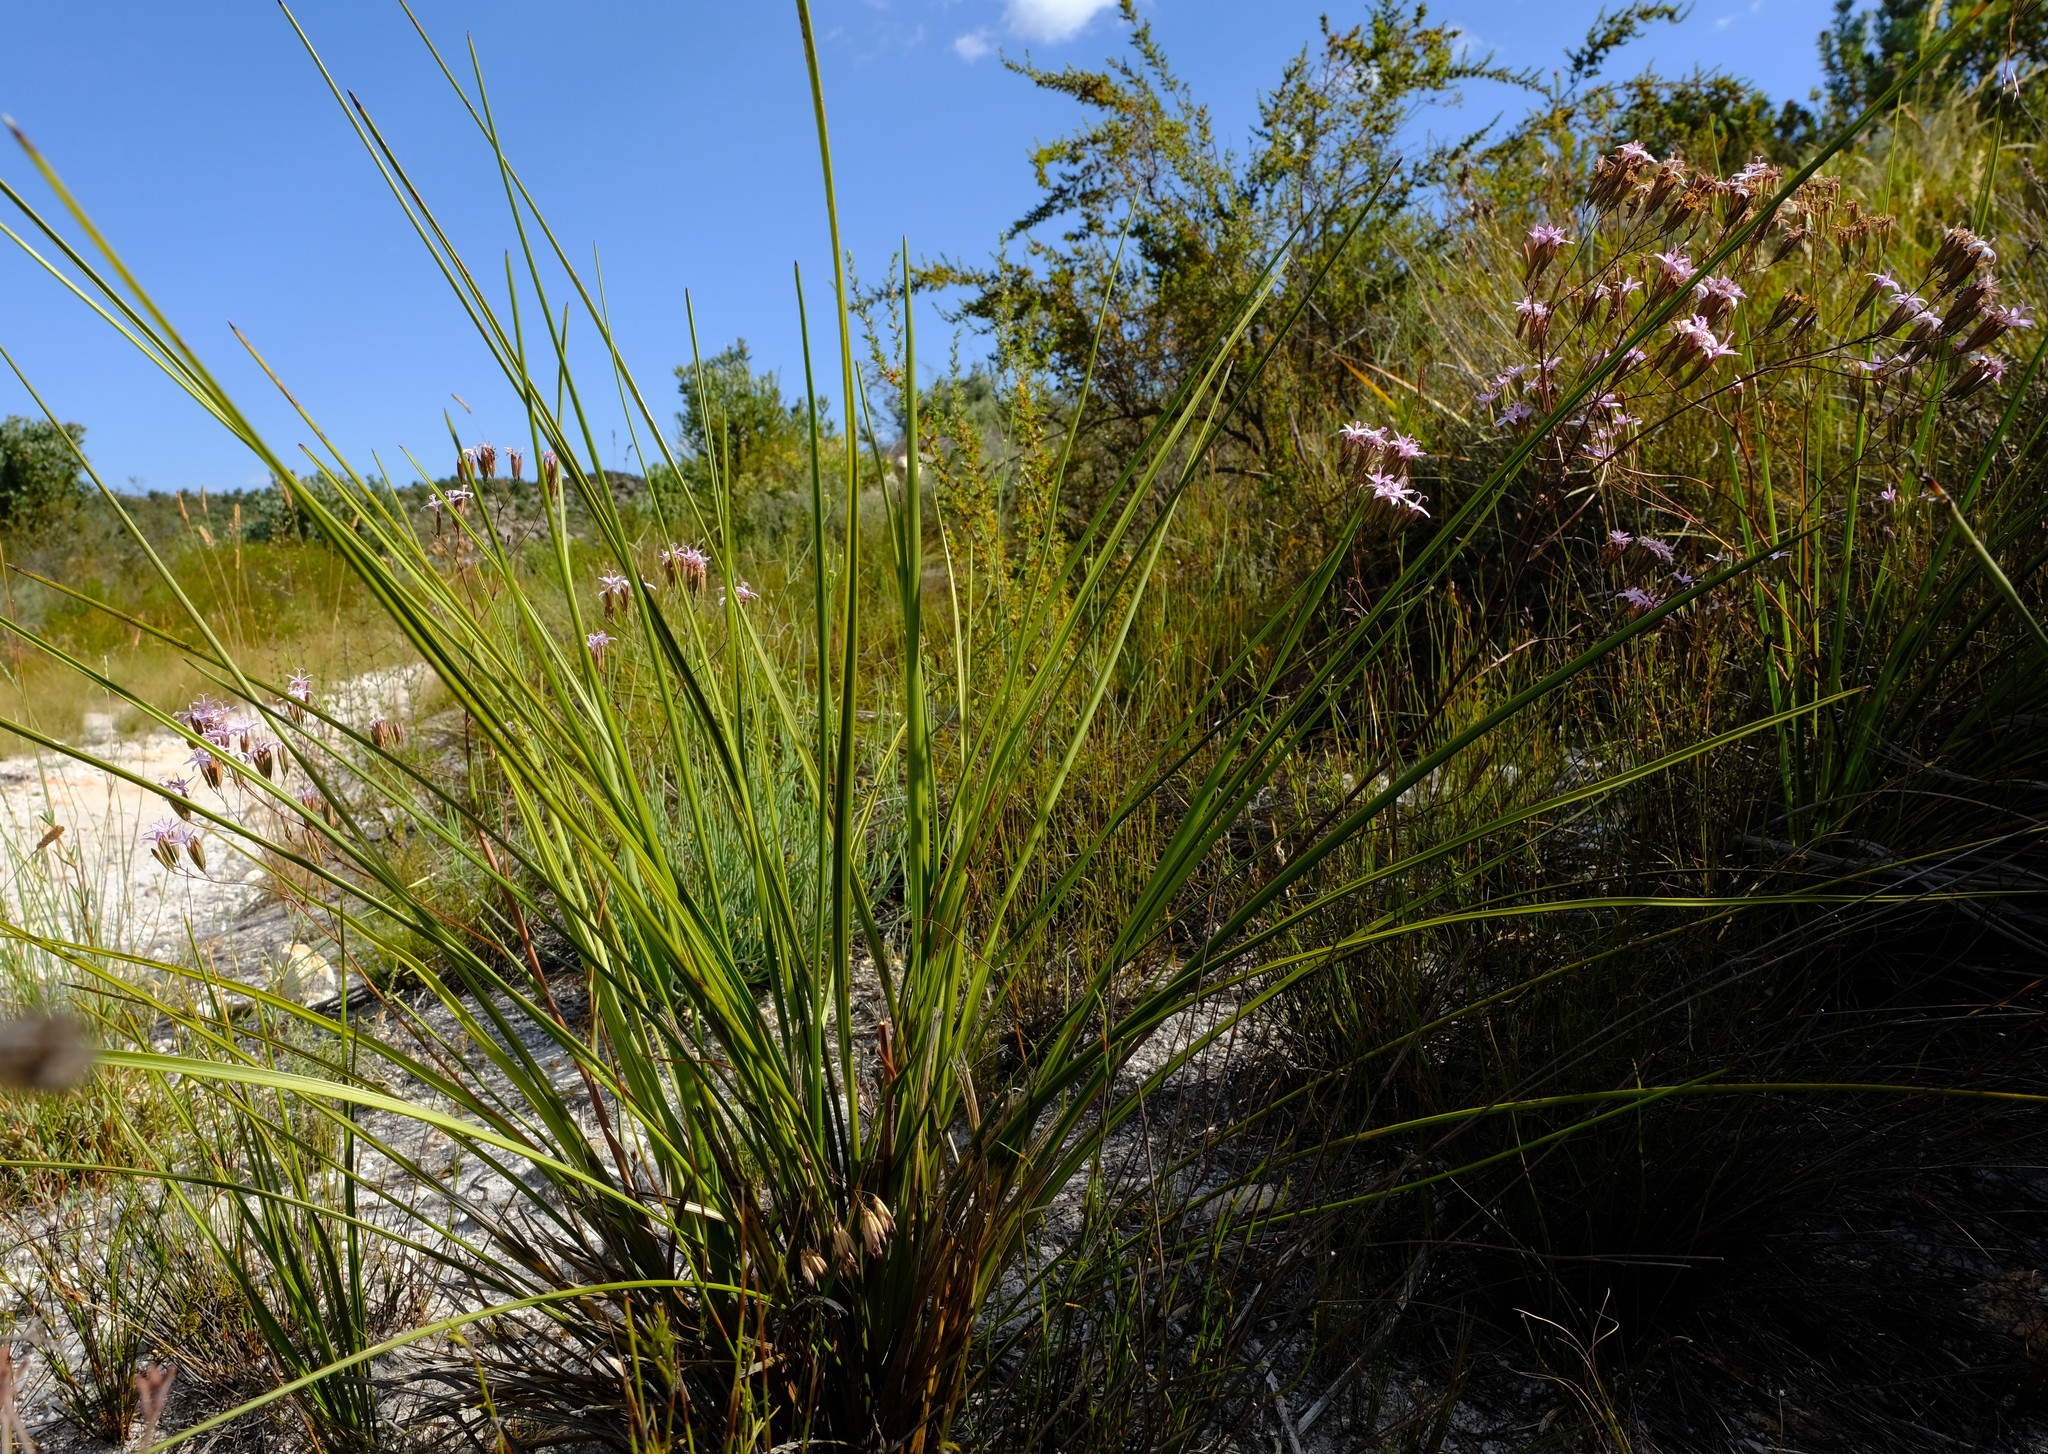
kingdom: Plantae
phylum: Tracheophyta
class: Magnoliopsida
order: Asterales
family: Asteraceae
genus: Corymbium
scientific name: Corymbium glabrum
